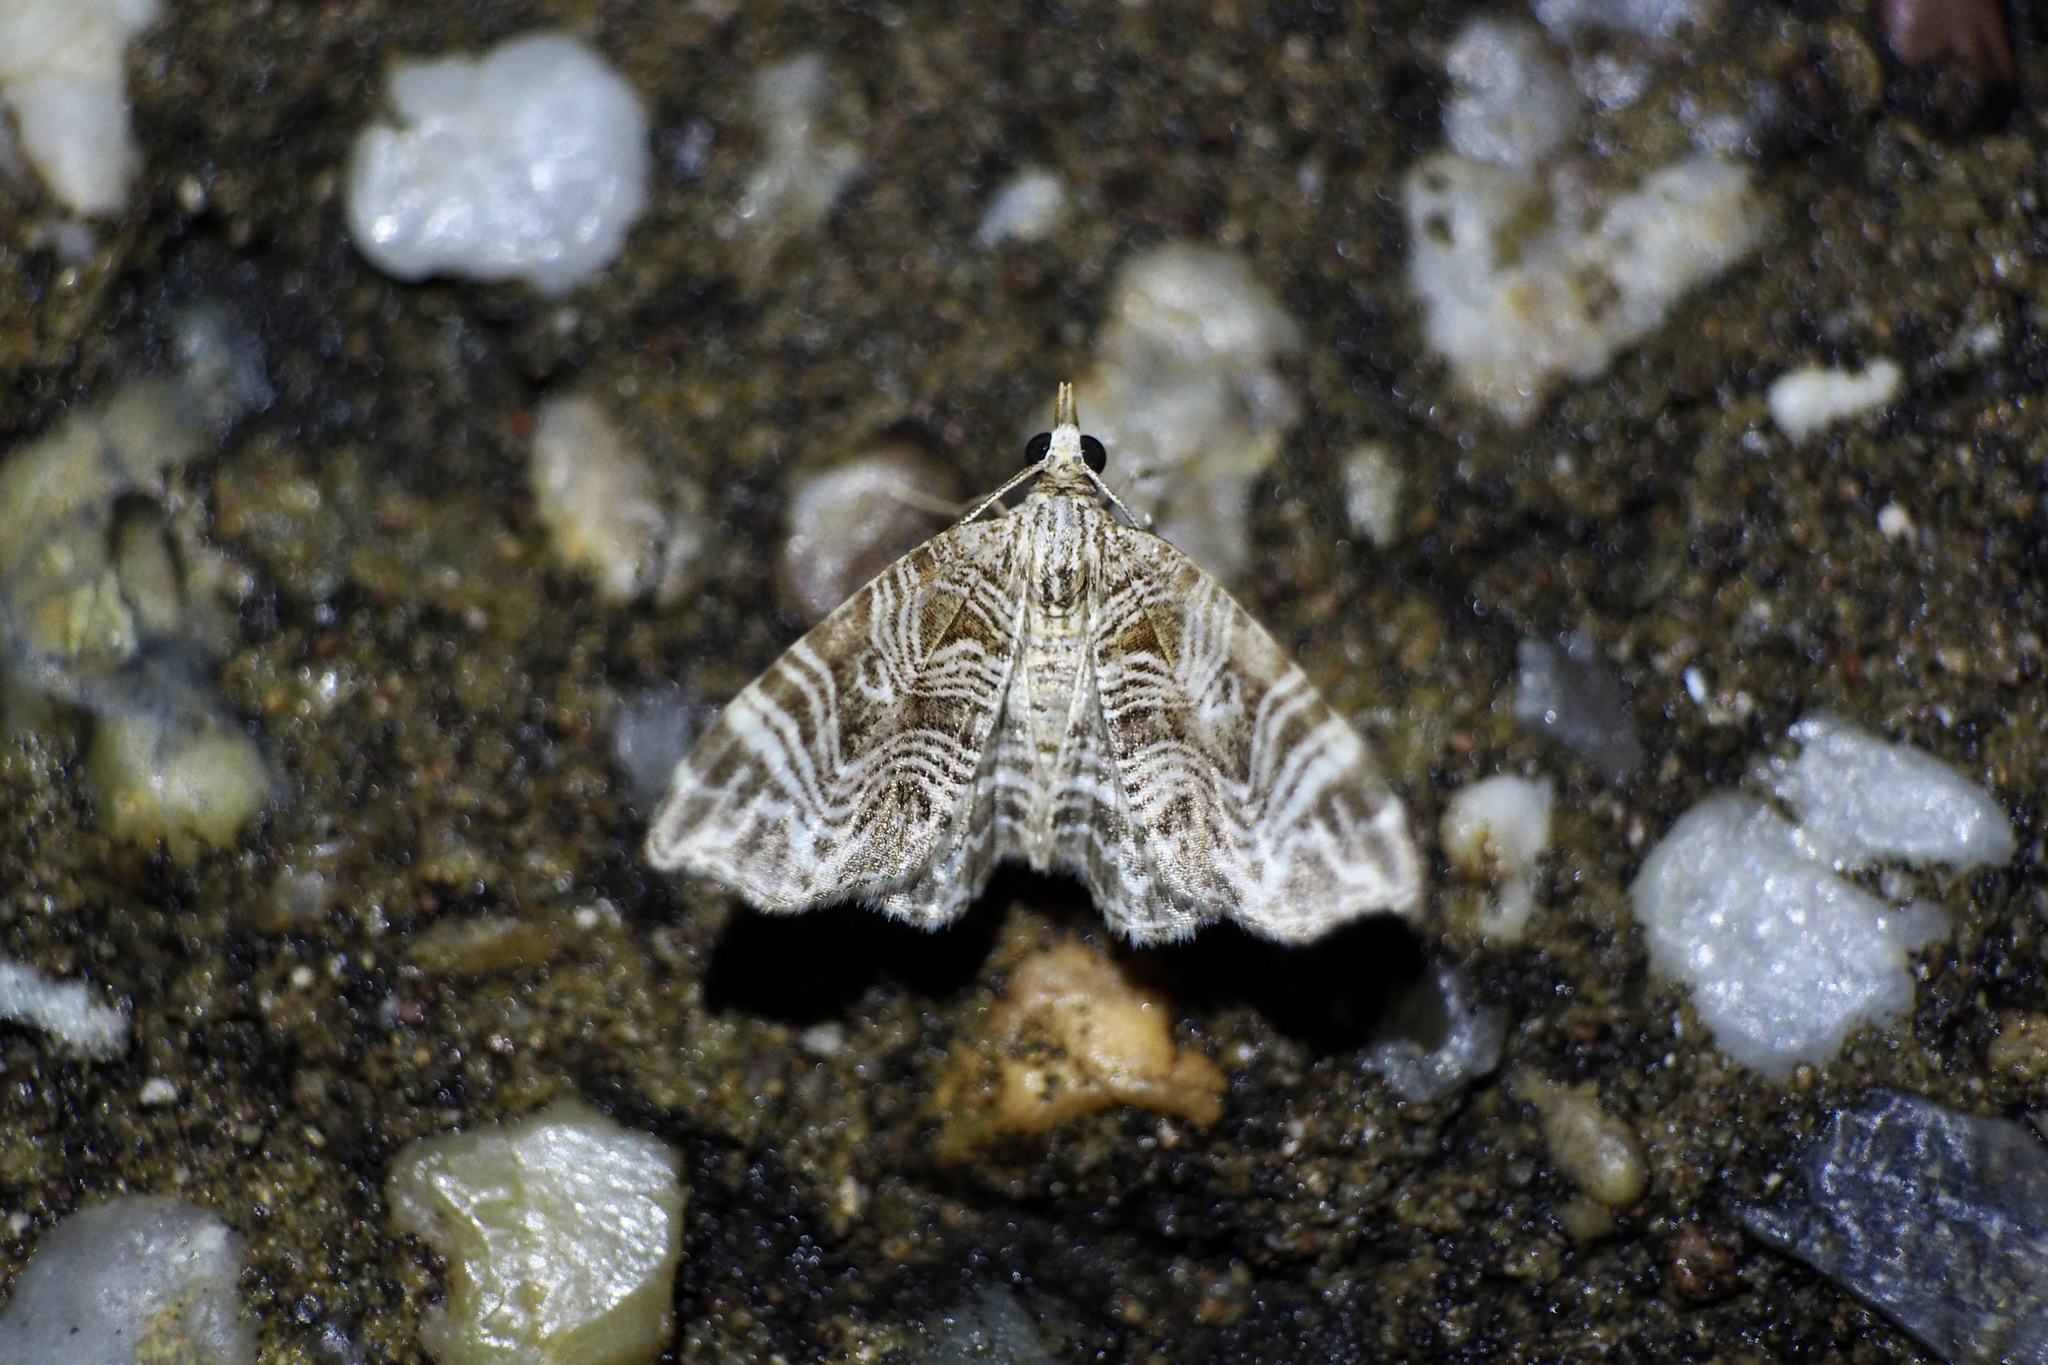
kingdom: Animalia
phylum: Arthropoda
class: Insecta
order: Lepidoptera
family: Geometridae
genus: Microlygris
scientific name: Microlygris multistriata
